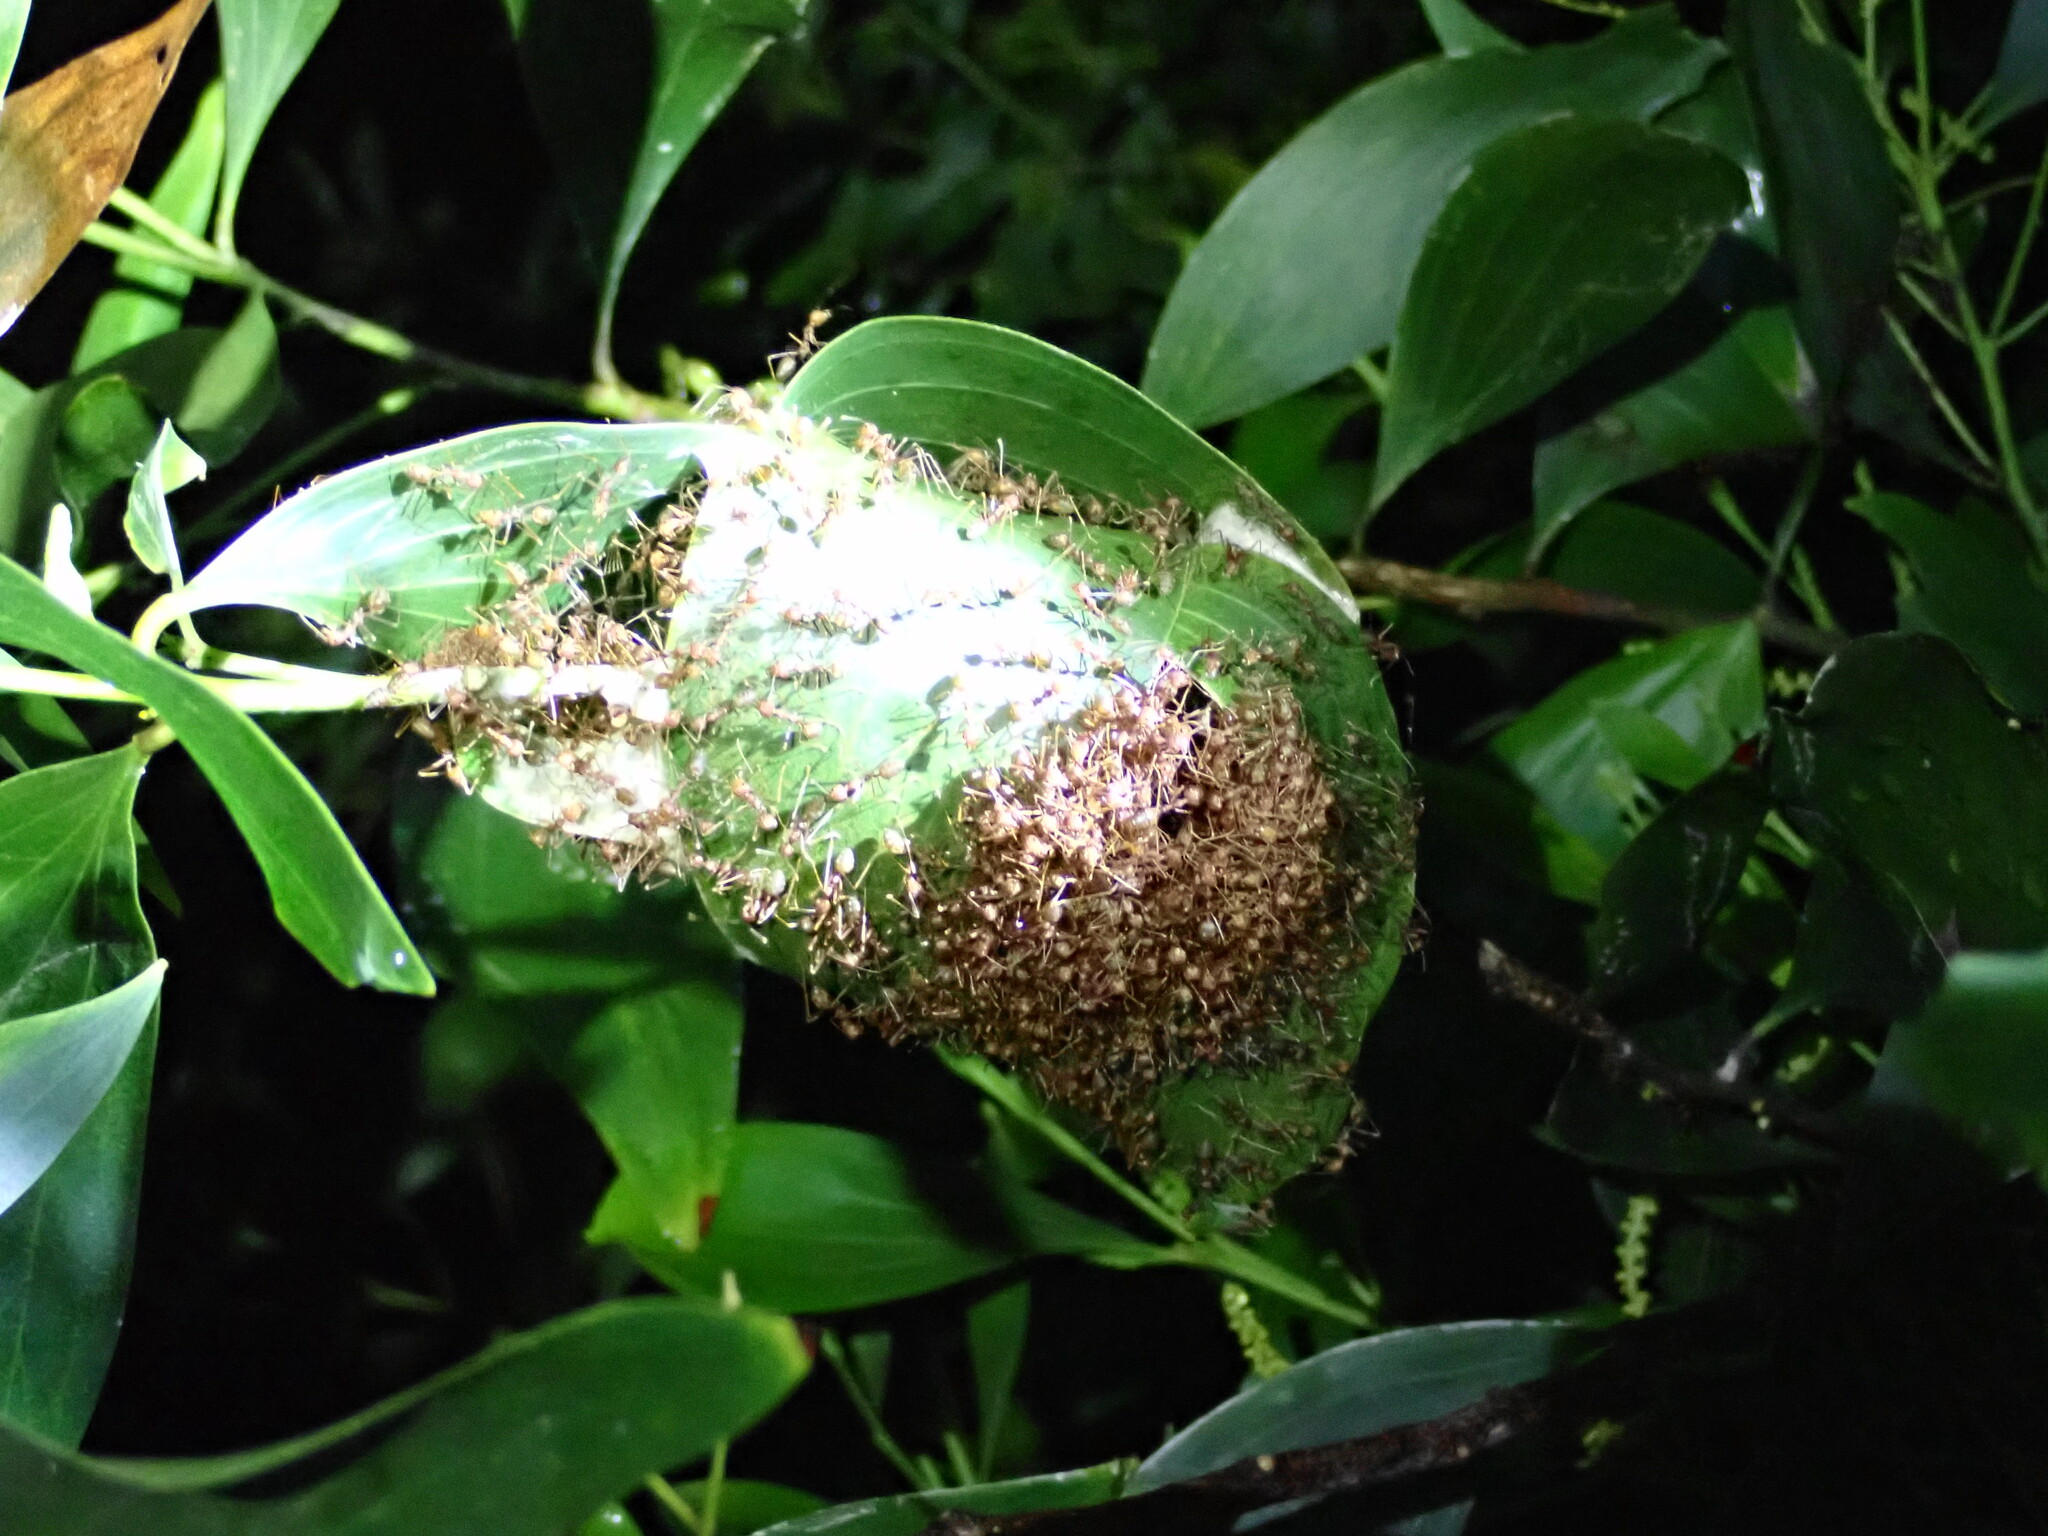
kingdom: Animalia
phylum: Arthropoda
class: Insecta
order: Hymenoptera
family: Formicidae
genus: Oecophylla
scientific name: Oecophylla smaragdina
